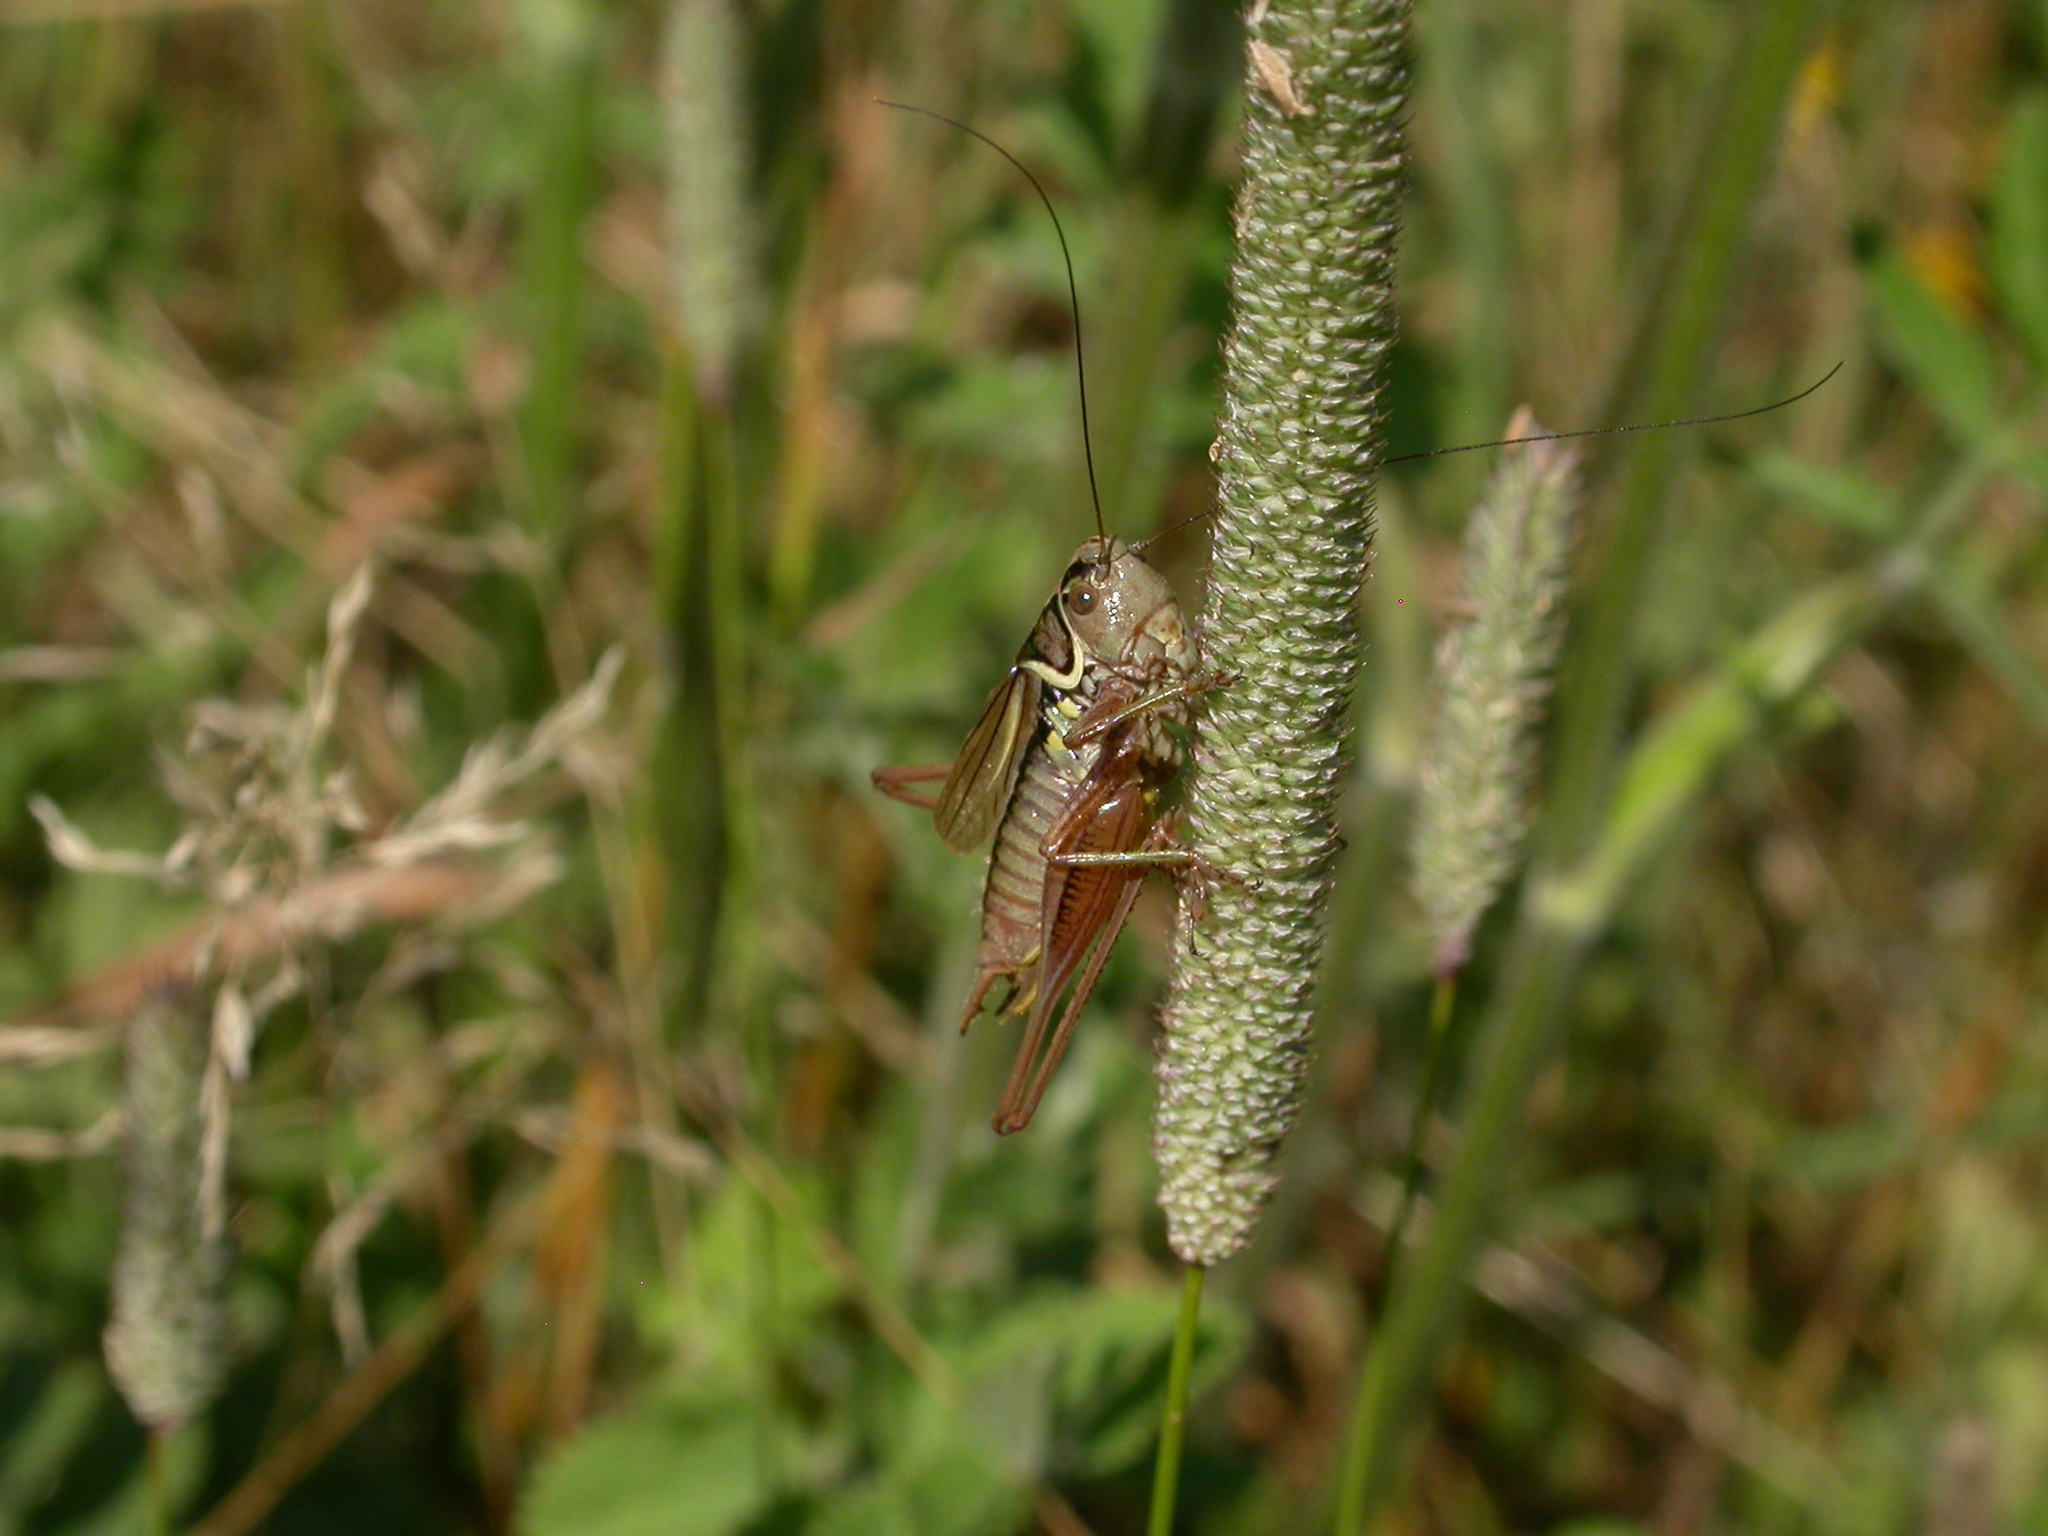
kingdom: Animalia
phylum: Arthropoda
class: Insecta
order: Orthoptera
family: Tettigoniidae
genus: Roeseliana
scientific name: Roeseliana roeselii
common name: Roesel's bush cricket
